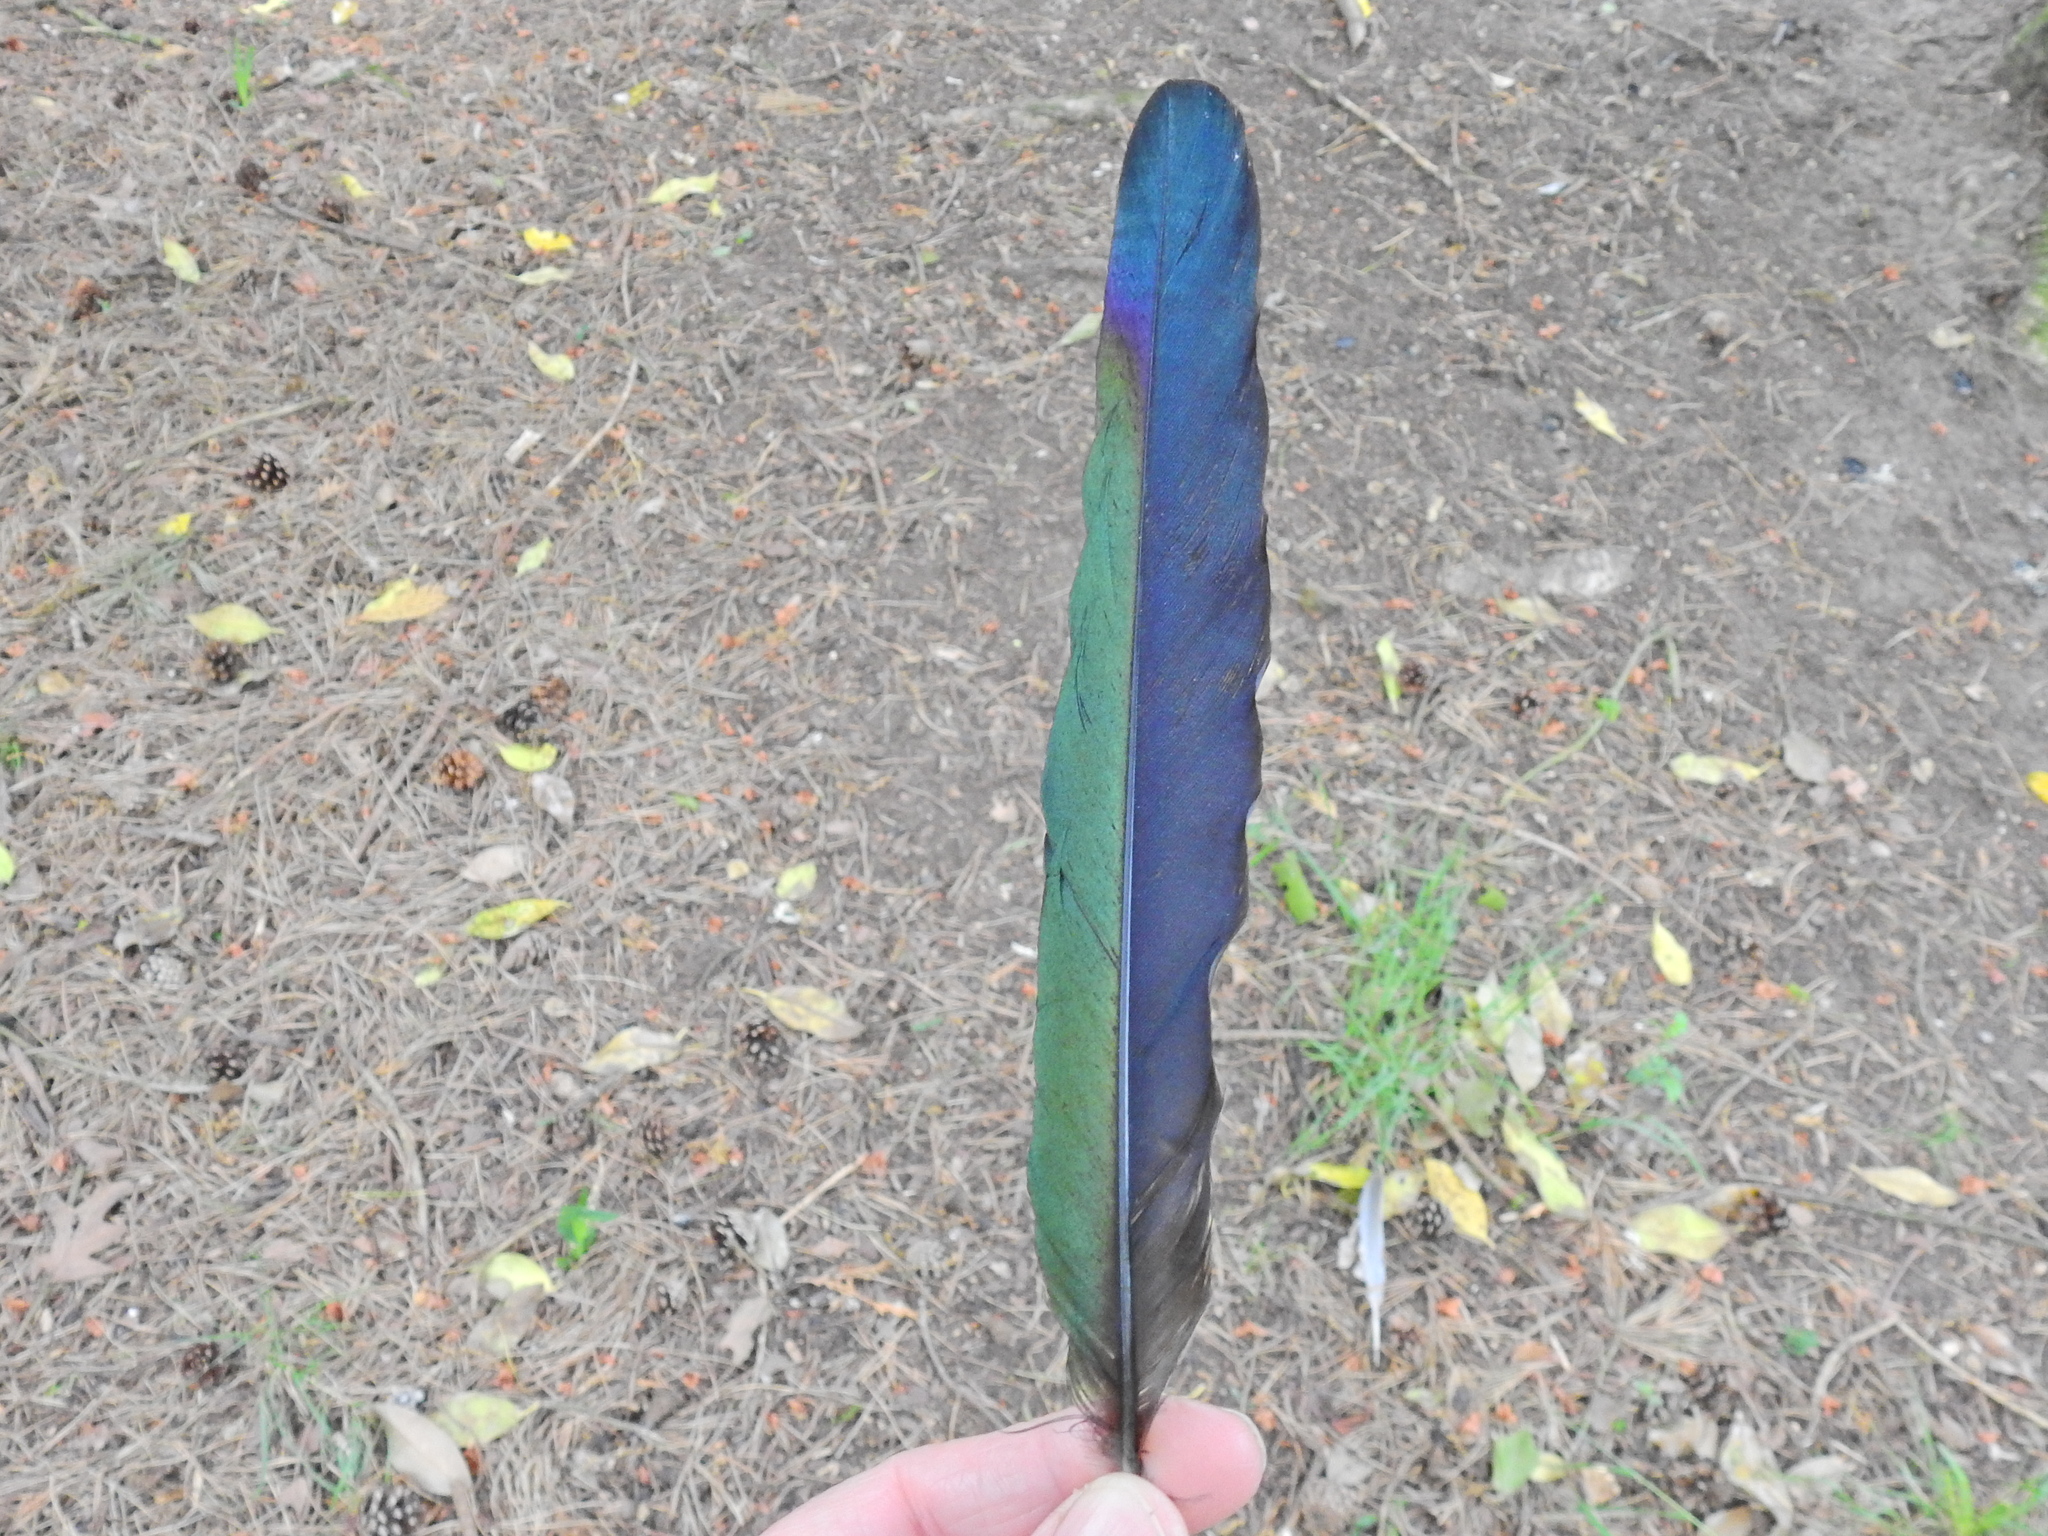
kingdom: Animalia
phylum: Chordata
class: Aves
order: Passeriformes
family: Corvidae
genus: Pica
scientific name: Pica pica
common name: Eurasian magpie
